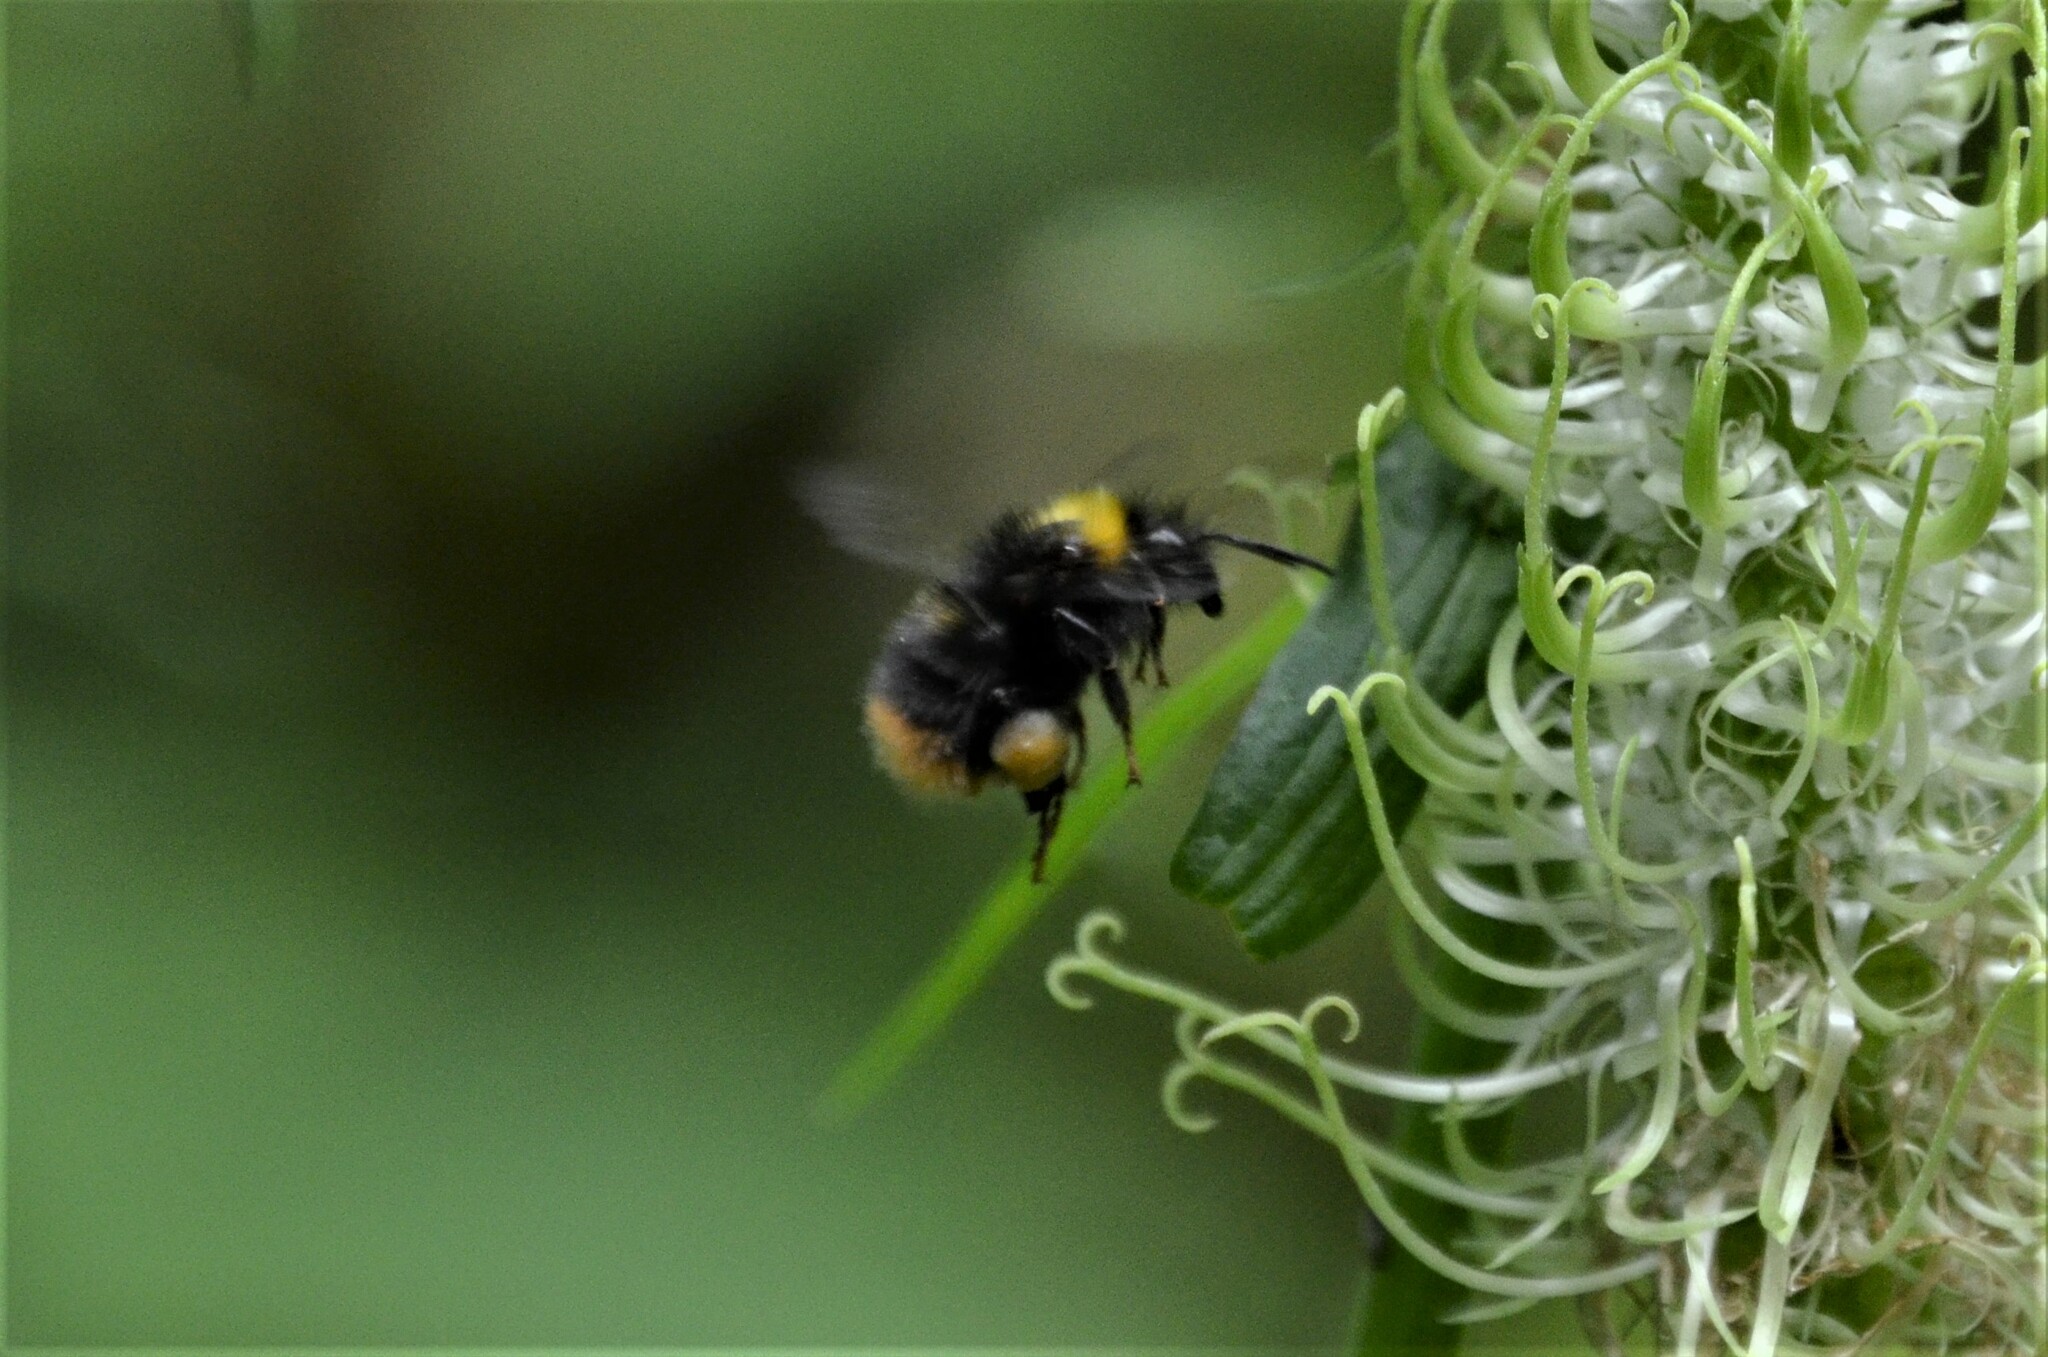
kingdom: Animalia
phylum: Arthropoda
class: Insecta
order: Hymenoptera
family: Apidae
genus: Bombus
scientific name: Bombus pratorum
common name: Early humble-bee
